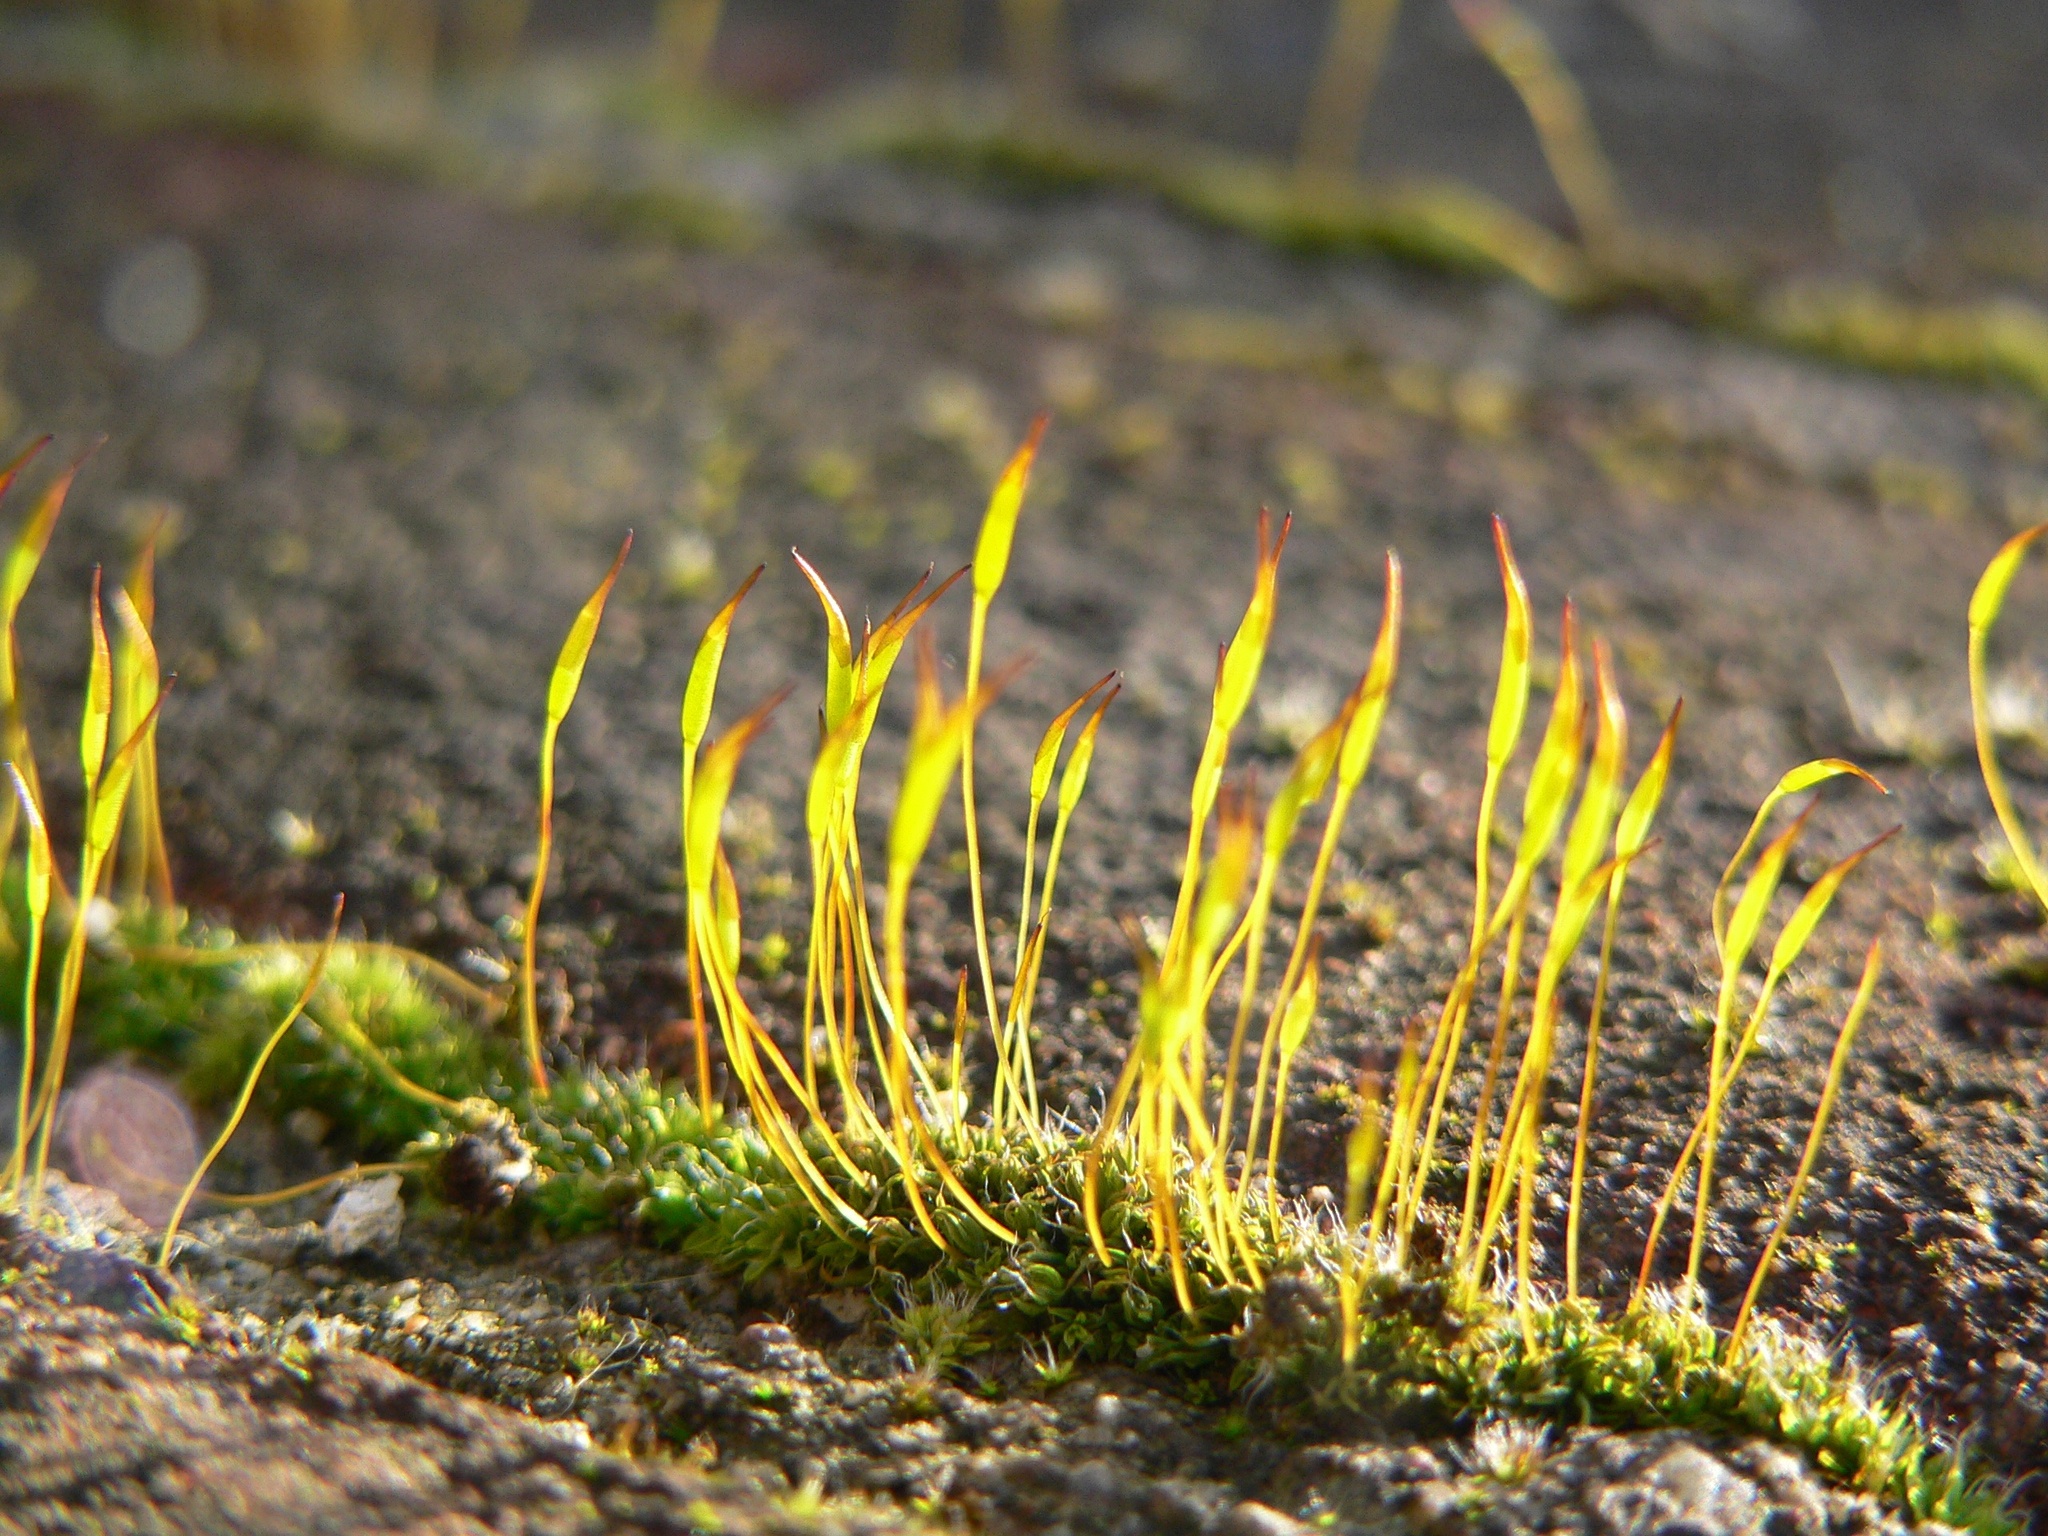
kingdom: Plantae
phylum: Bryophyta
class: Bryopsida
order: Pottiales
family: Pottiaceae
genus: Tortula
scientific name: Tortula muralis
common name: Wall screw-moss
